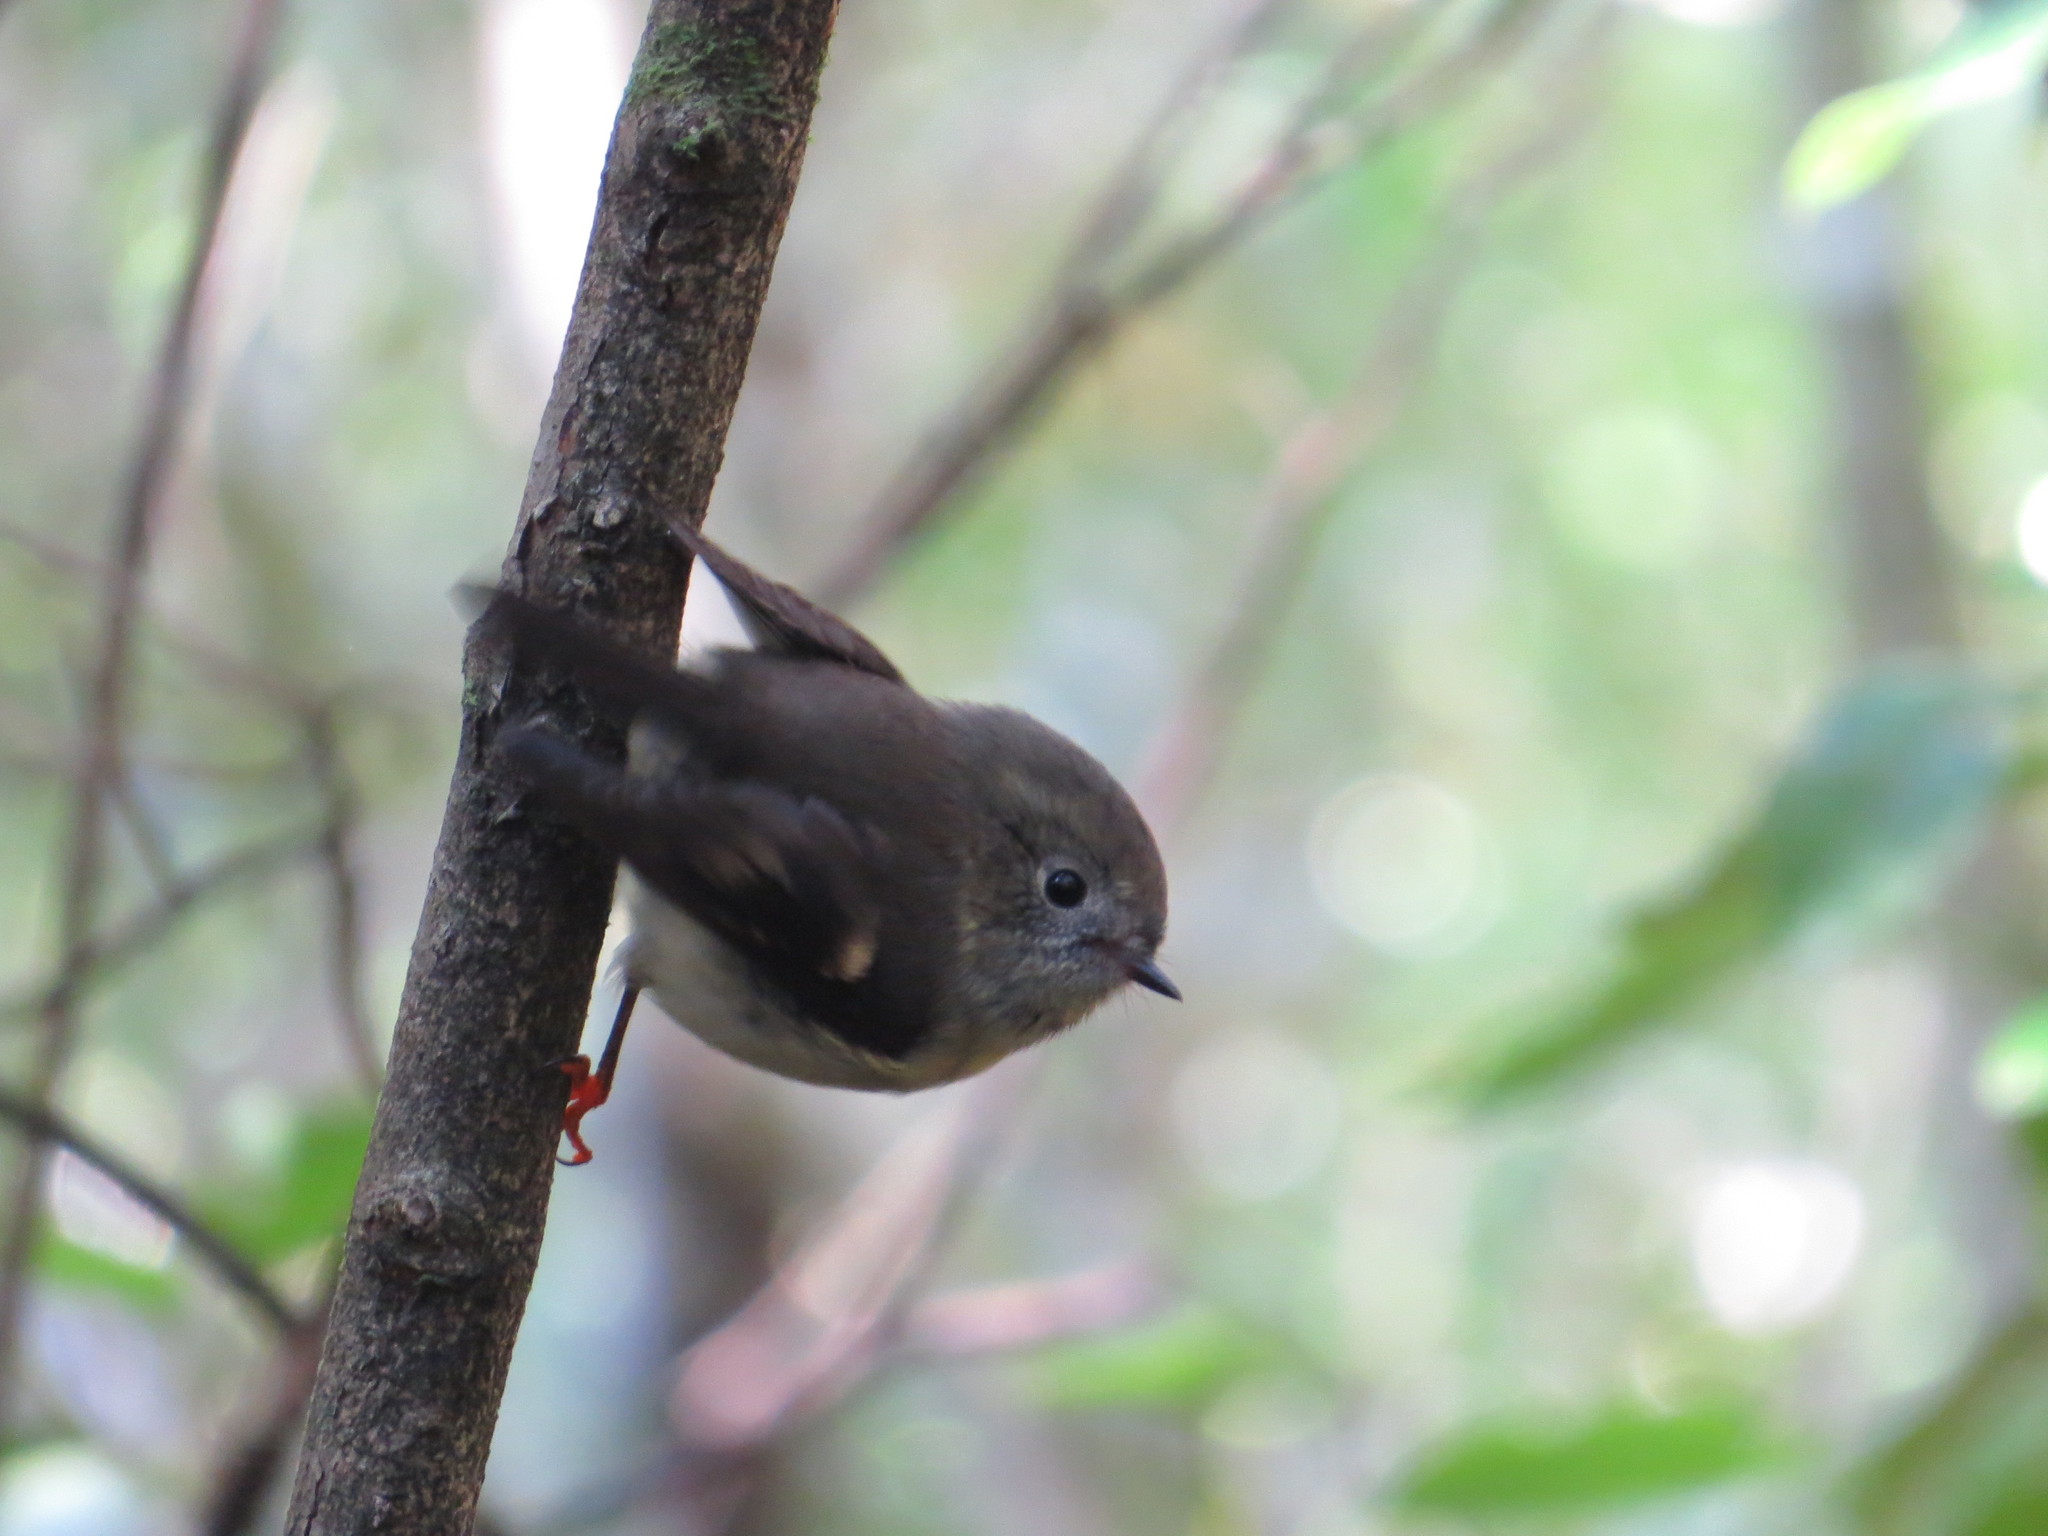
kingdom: Animalia
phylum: Chordata
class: Aves
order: Passeriformes
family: Petroicidae
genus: Petroica
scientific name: Petroica macrocephala
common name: Tomtit
